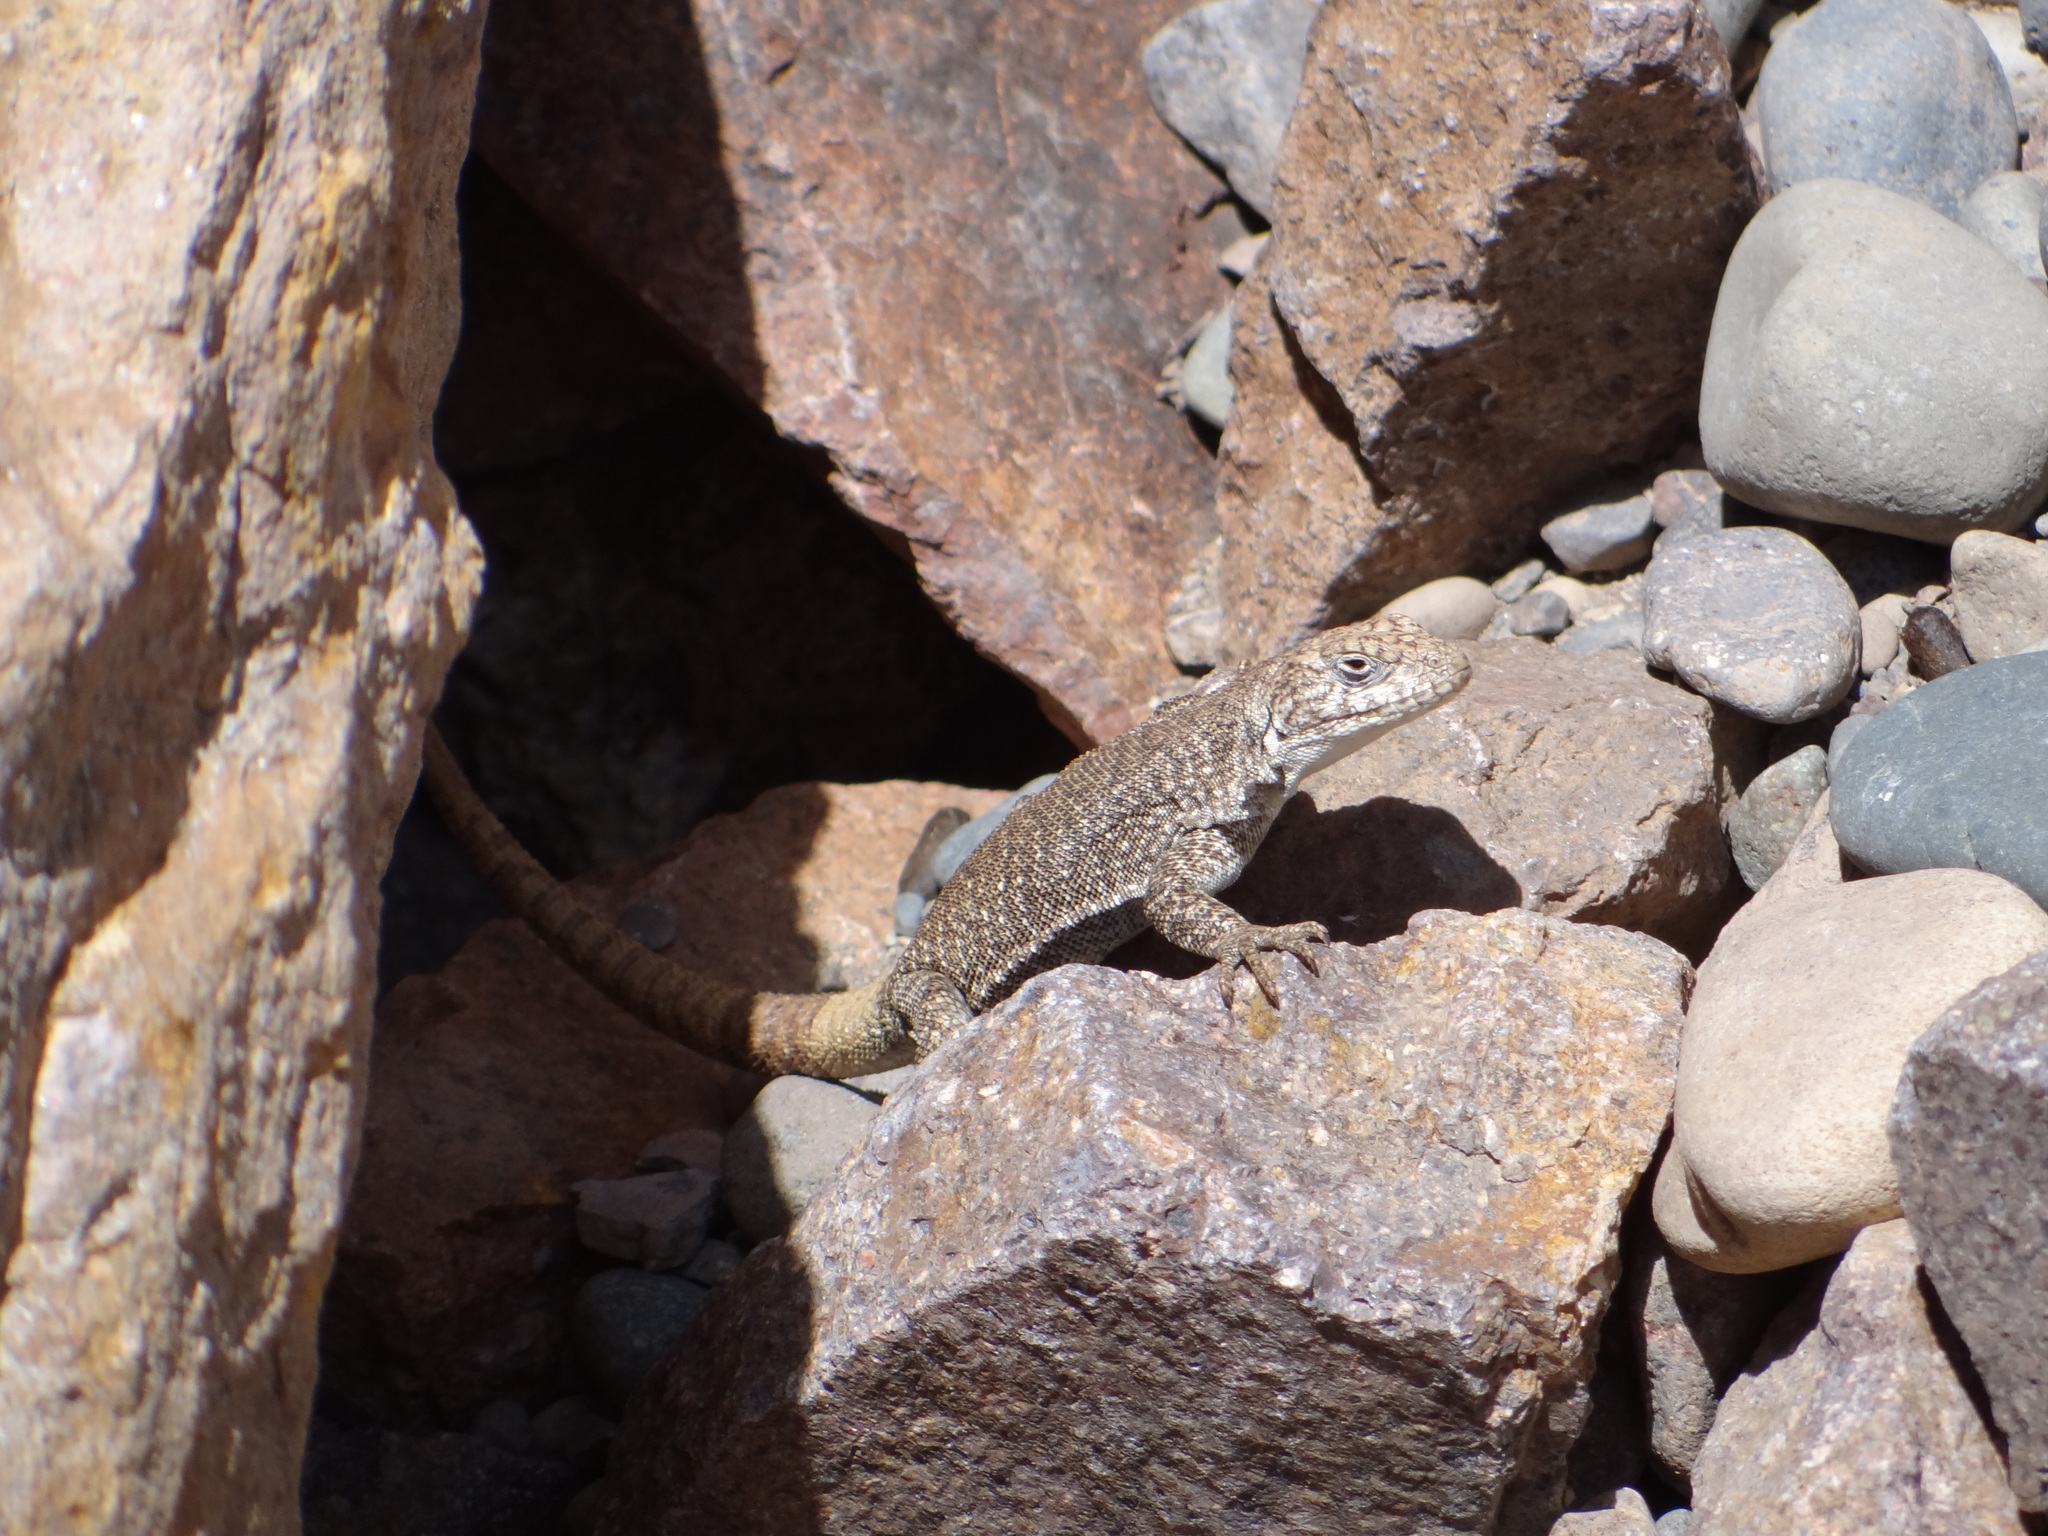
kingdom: Animalia
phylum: Chordata
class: Squamata
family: Liolaemidae
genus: Liolaemus
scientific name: Liolaemus austromendocinus
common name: Austromendocino tree iguana
